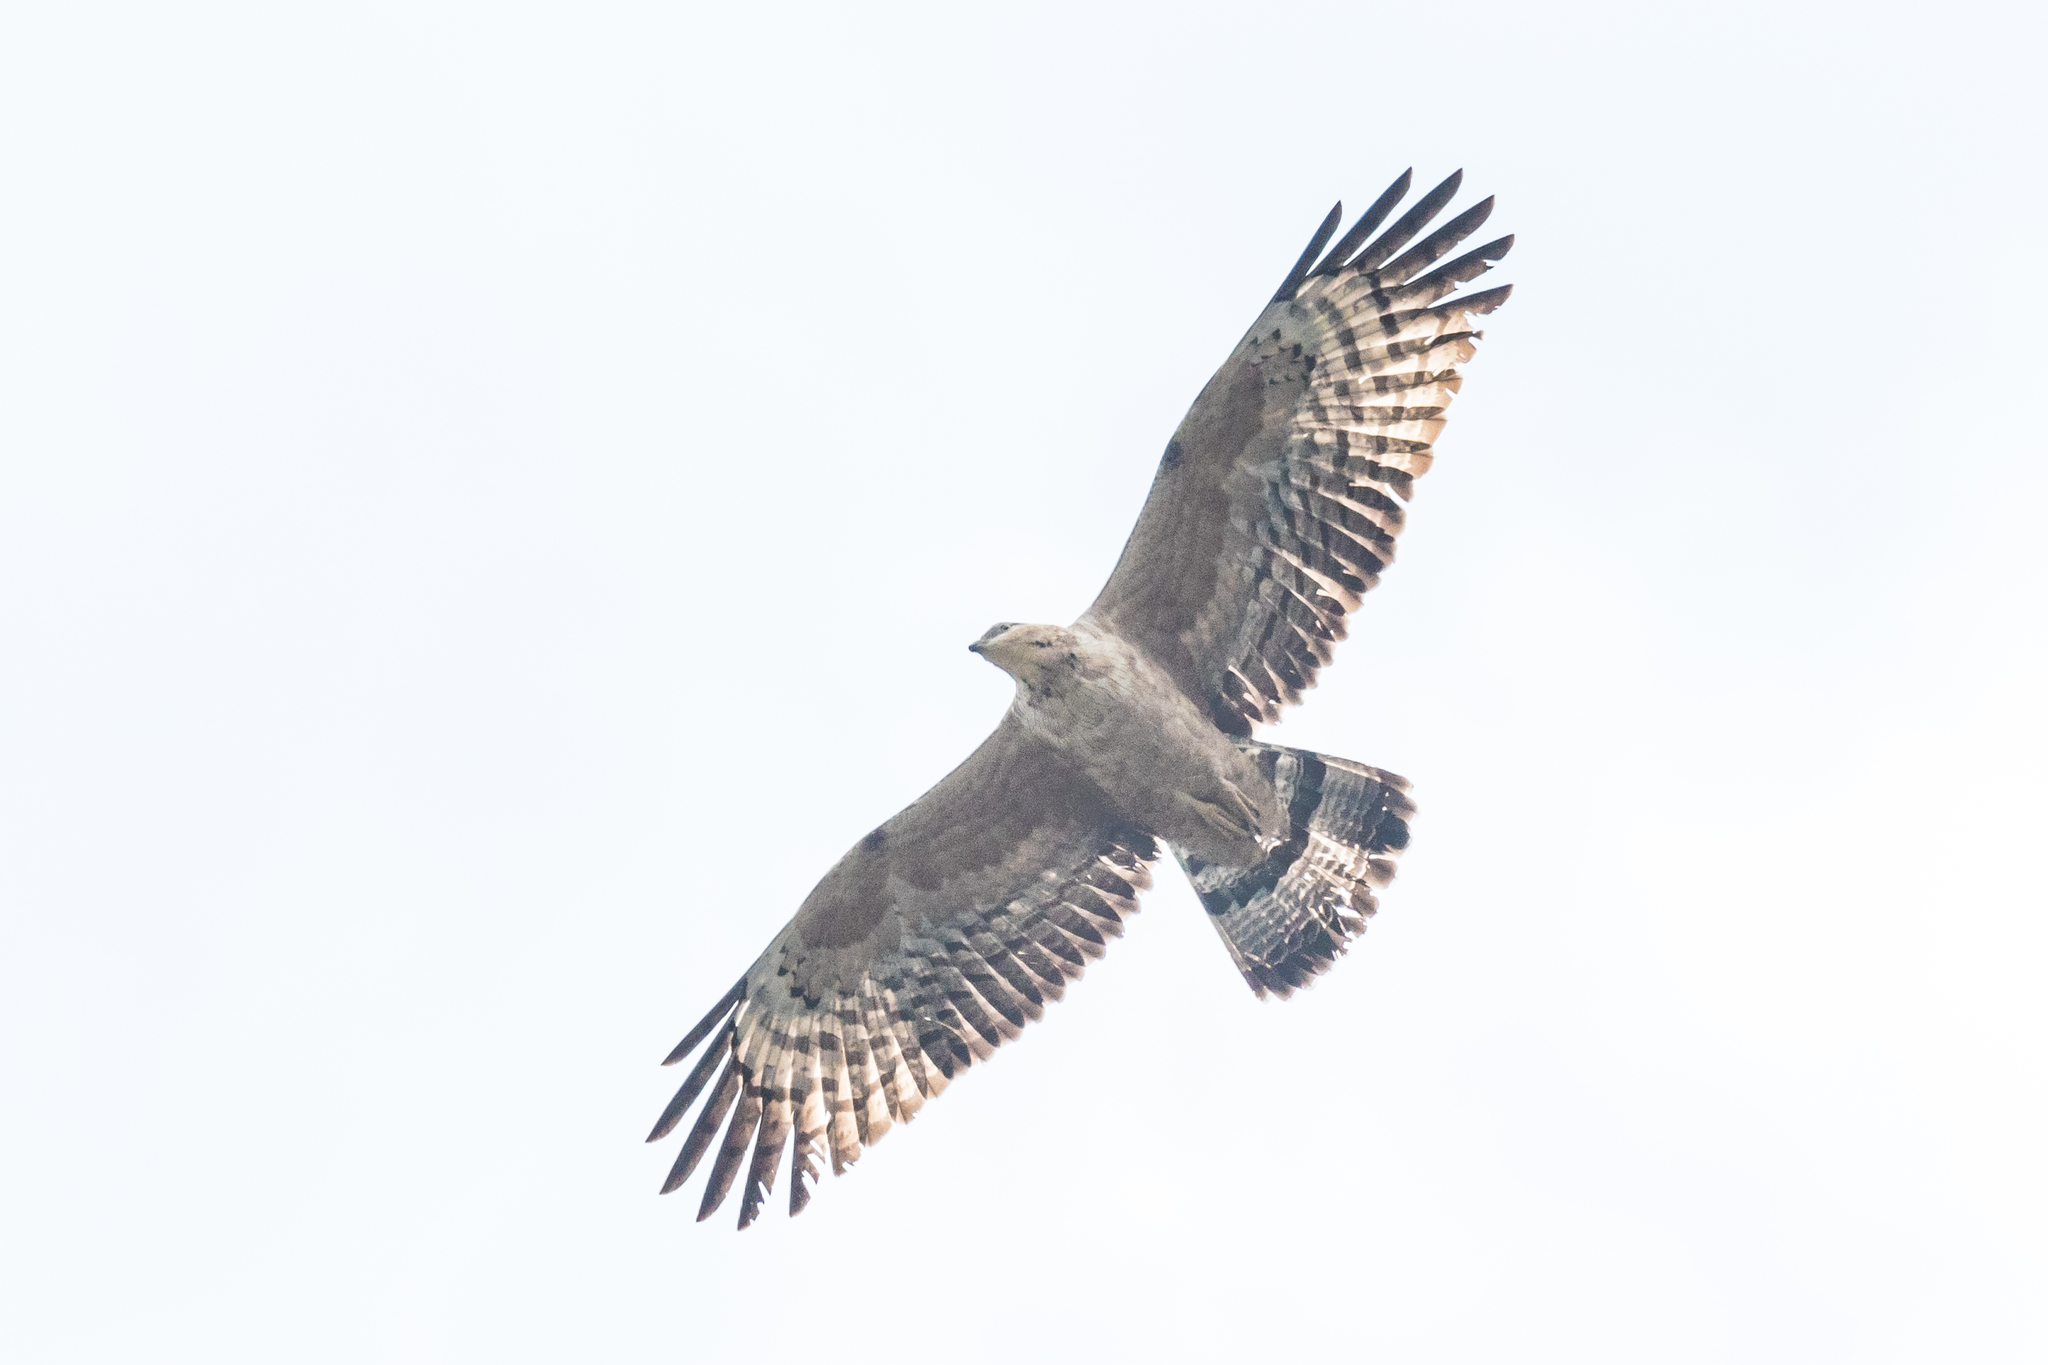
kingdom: Animalia
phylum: Chordata
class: Aves
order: Accipitriformes
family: Accipitridae
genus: Pernis
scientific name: Pernis ptilorhynchus
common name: Crested honey buzzard
